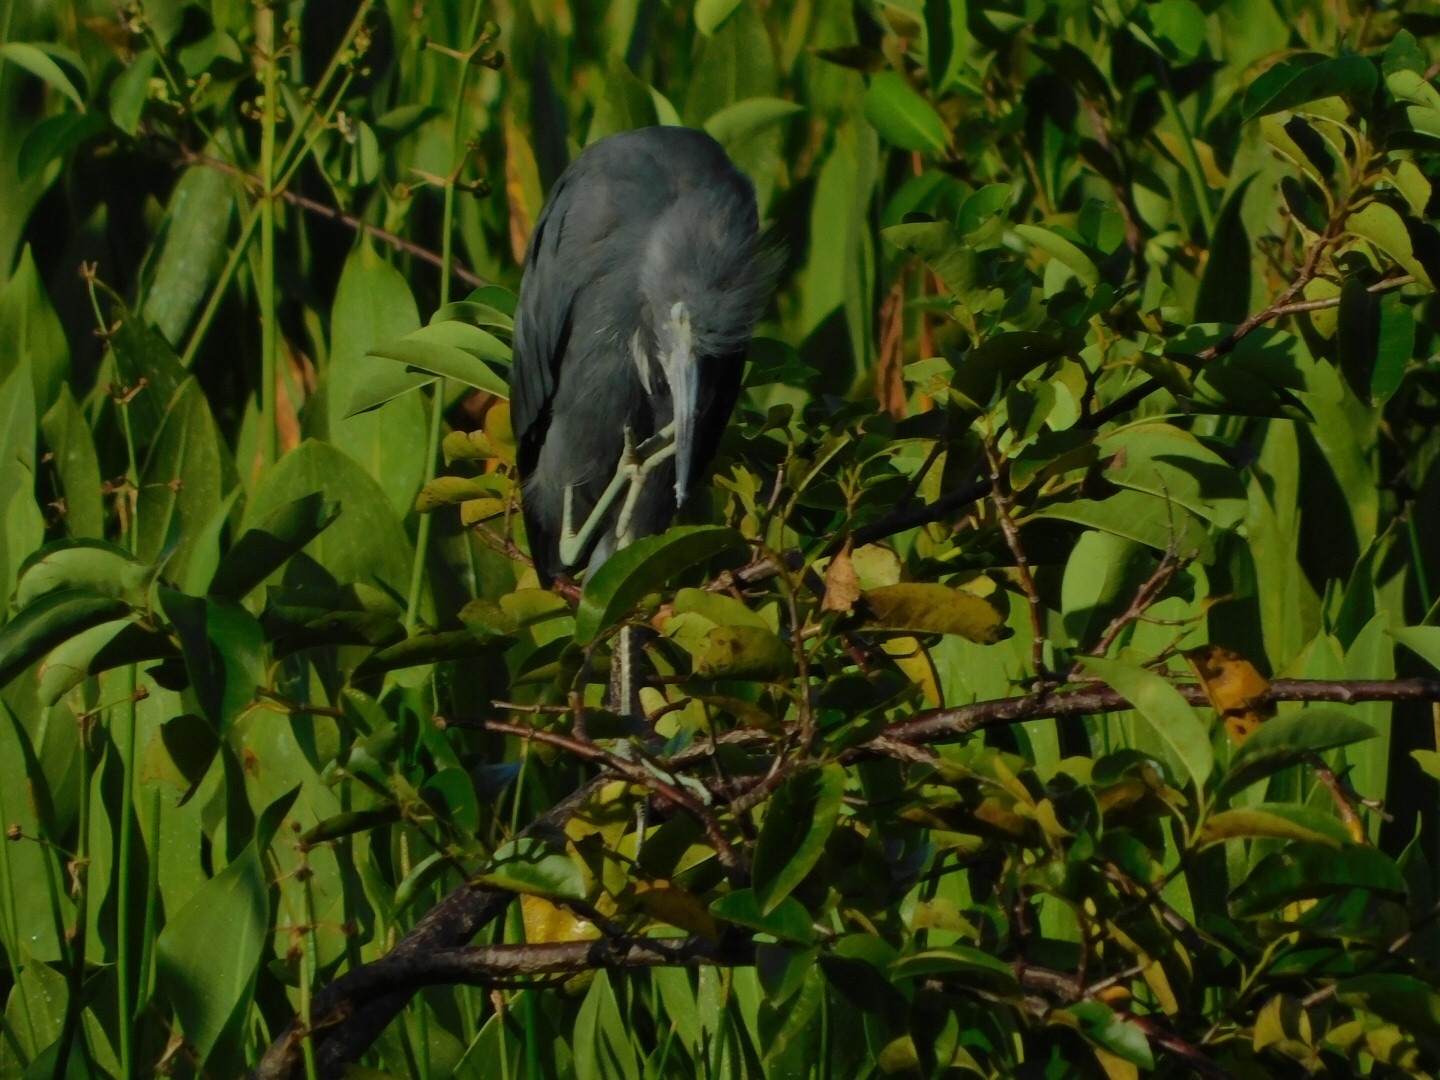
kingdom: Animalia
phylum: Chordata
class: Aves
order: Pelecaniformes
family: Ardeidae
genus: Egretta
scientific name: Egretta caerulea
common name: Little blue heron
